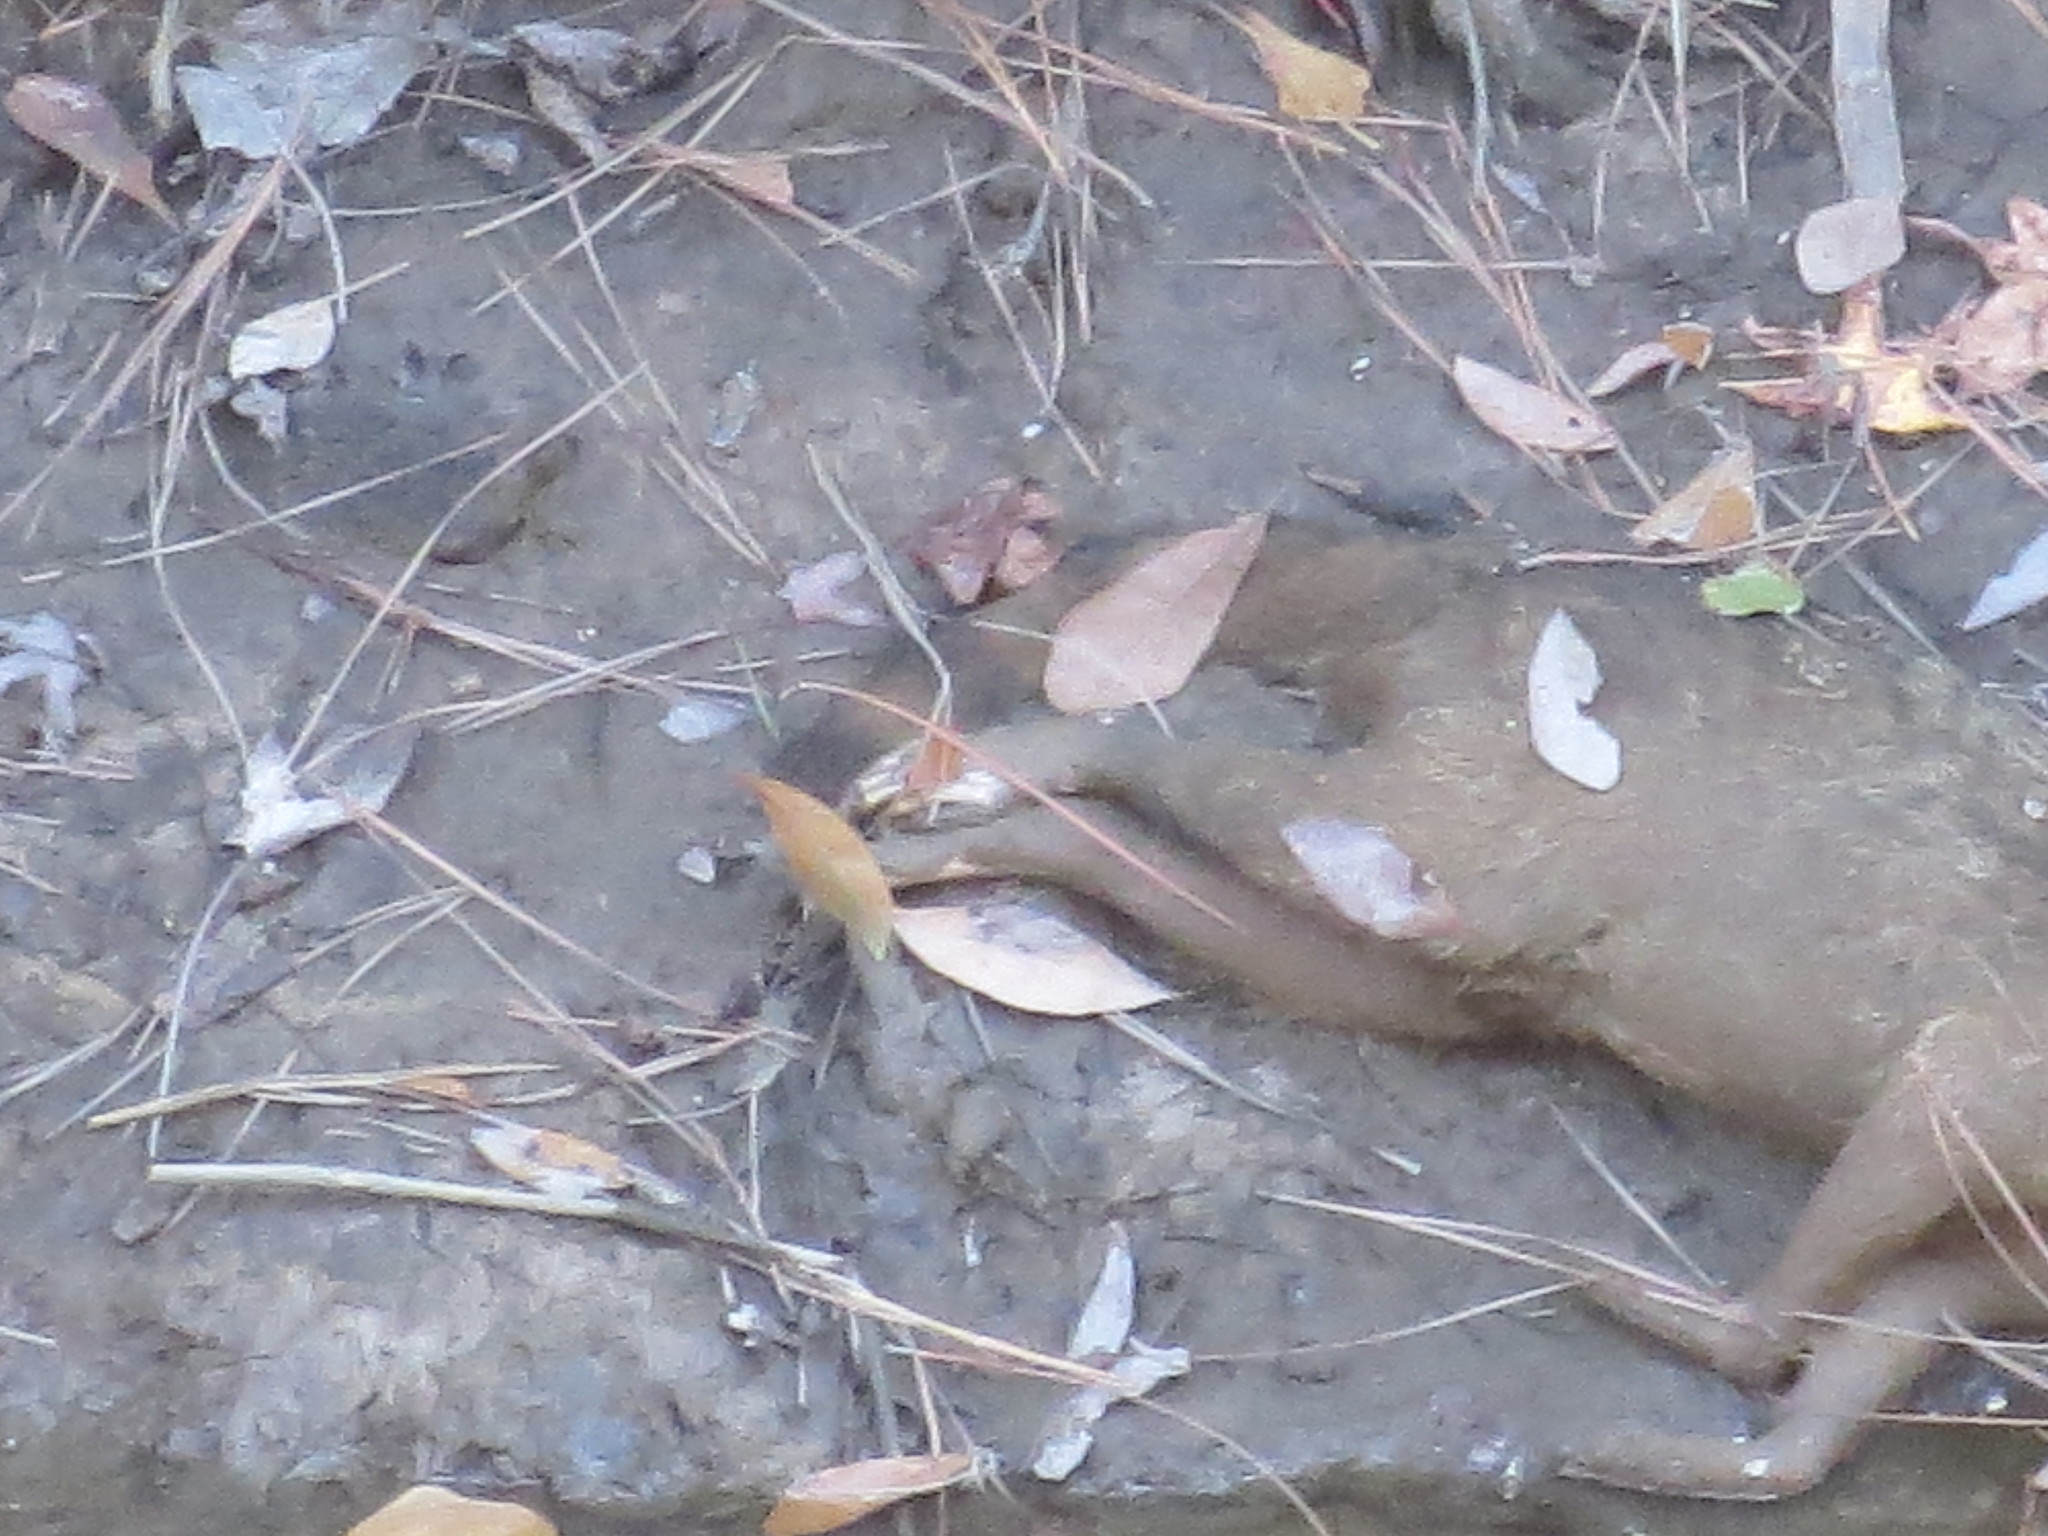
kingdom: Animalia
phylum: Chordata
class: Mammalia
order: Carnivora
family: Procyonidae
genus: Procyon
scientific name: Procyon lotor
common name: Raccoon
